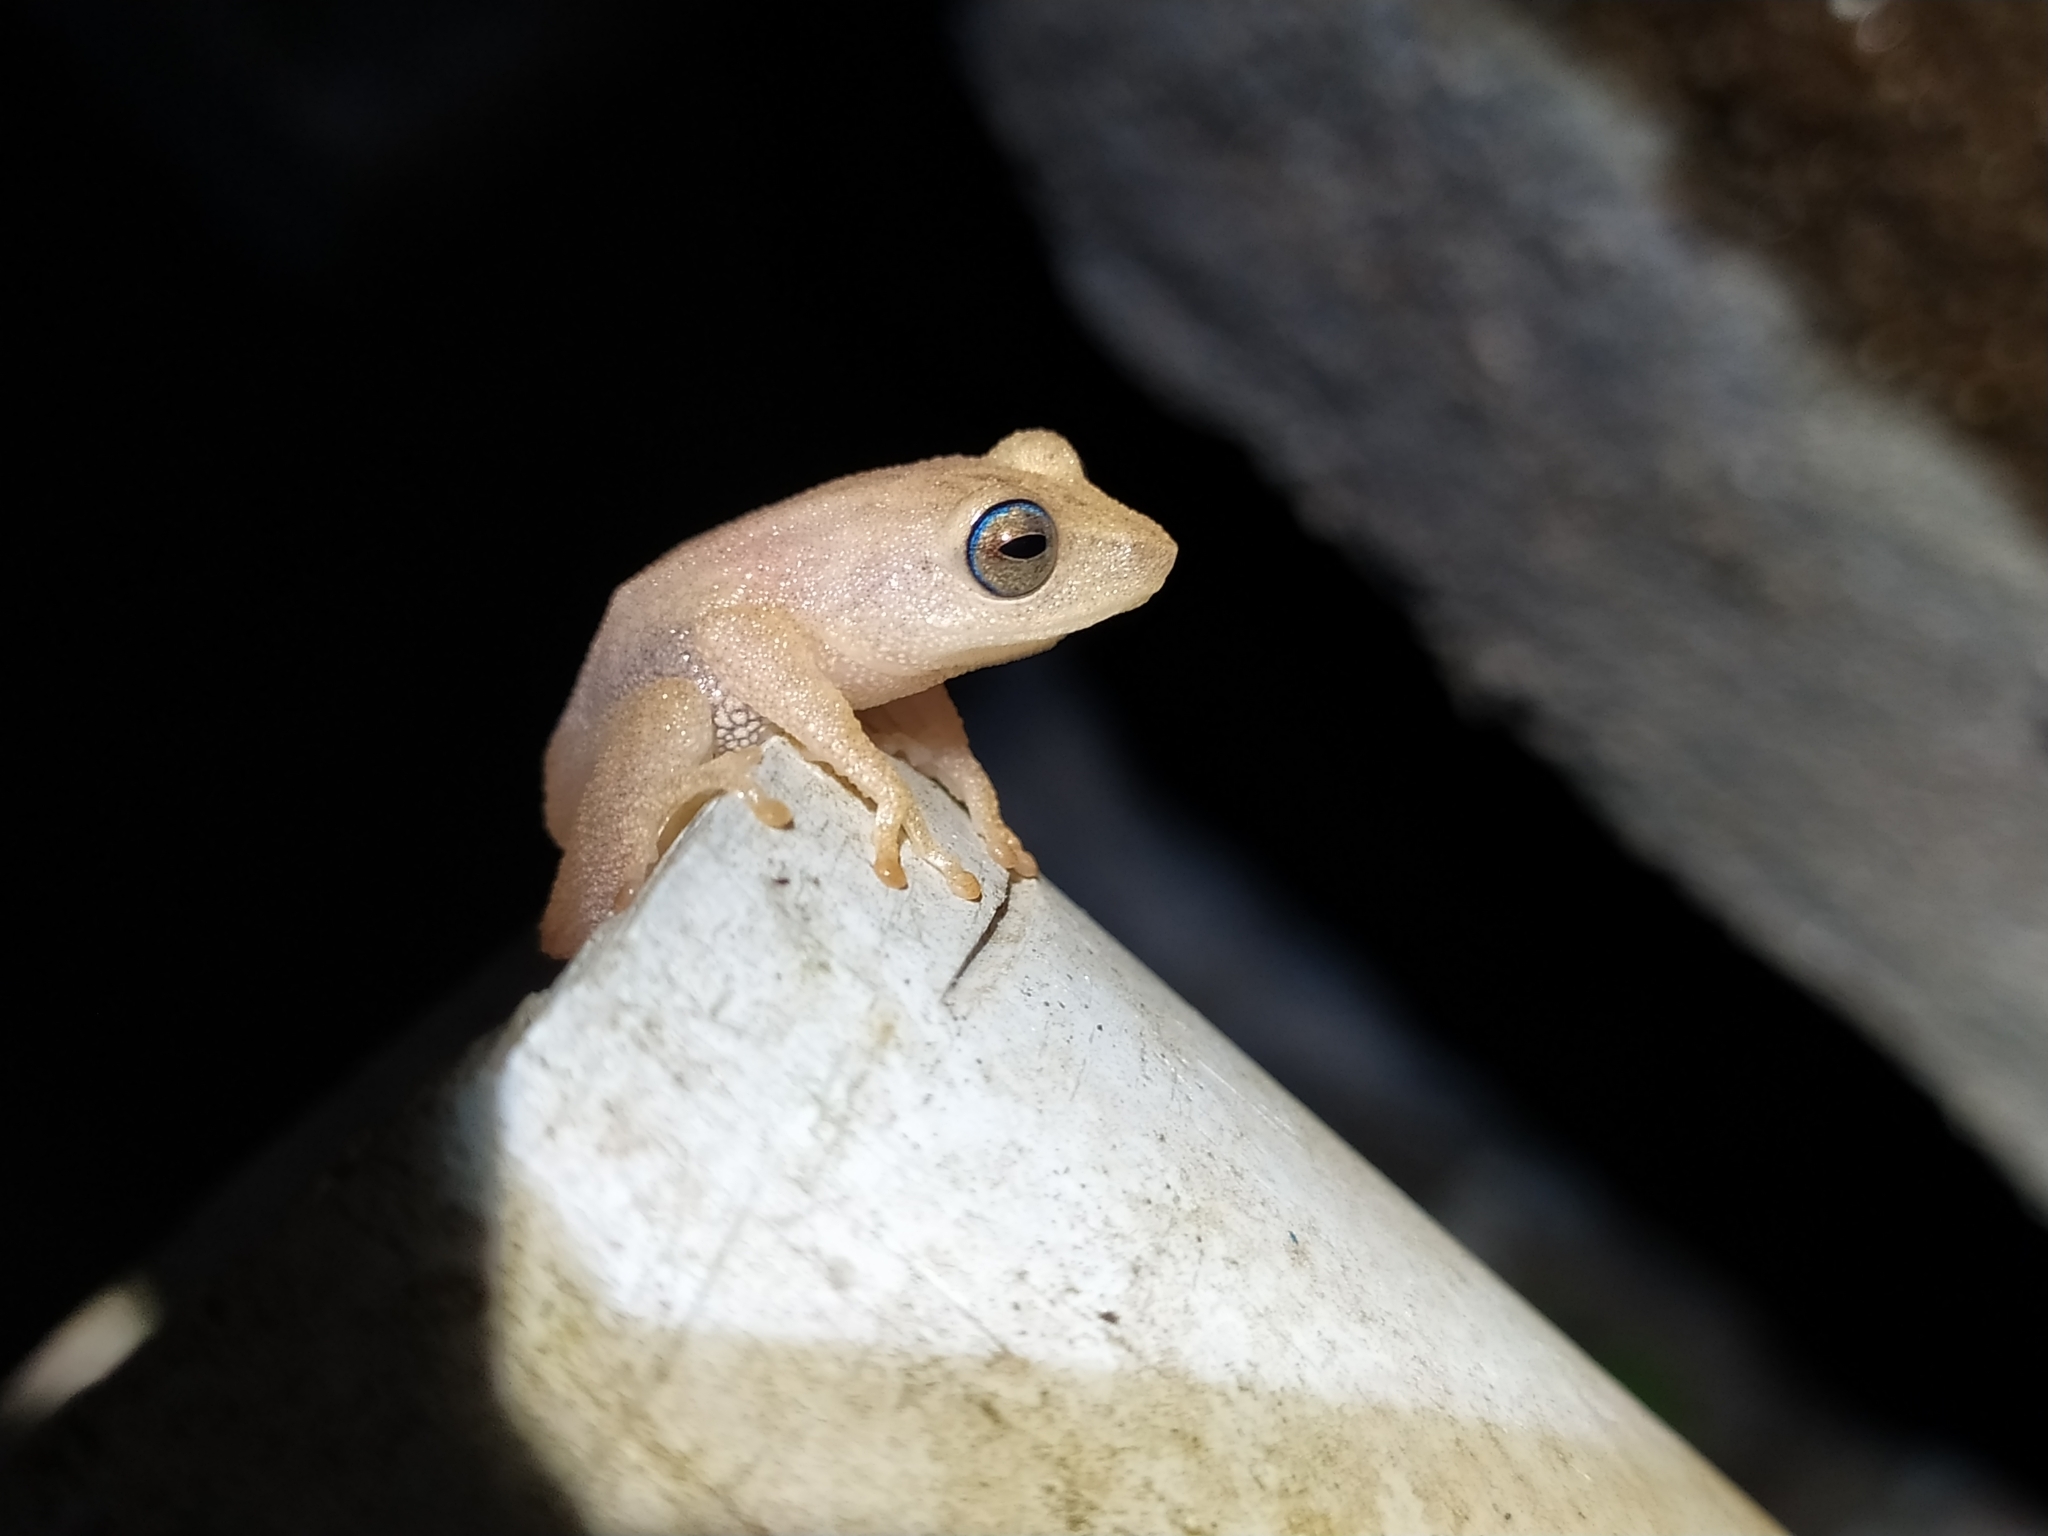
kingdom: Animalia
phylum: Chordata
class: Amphibia
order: Anura
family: Rhacophoridae
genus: Raorchestes
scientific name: Raorchestes luteolus
